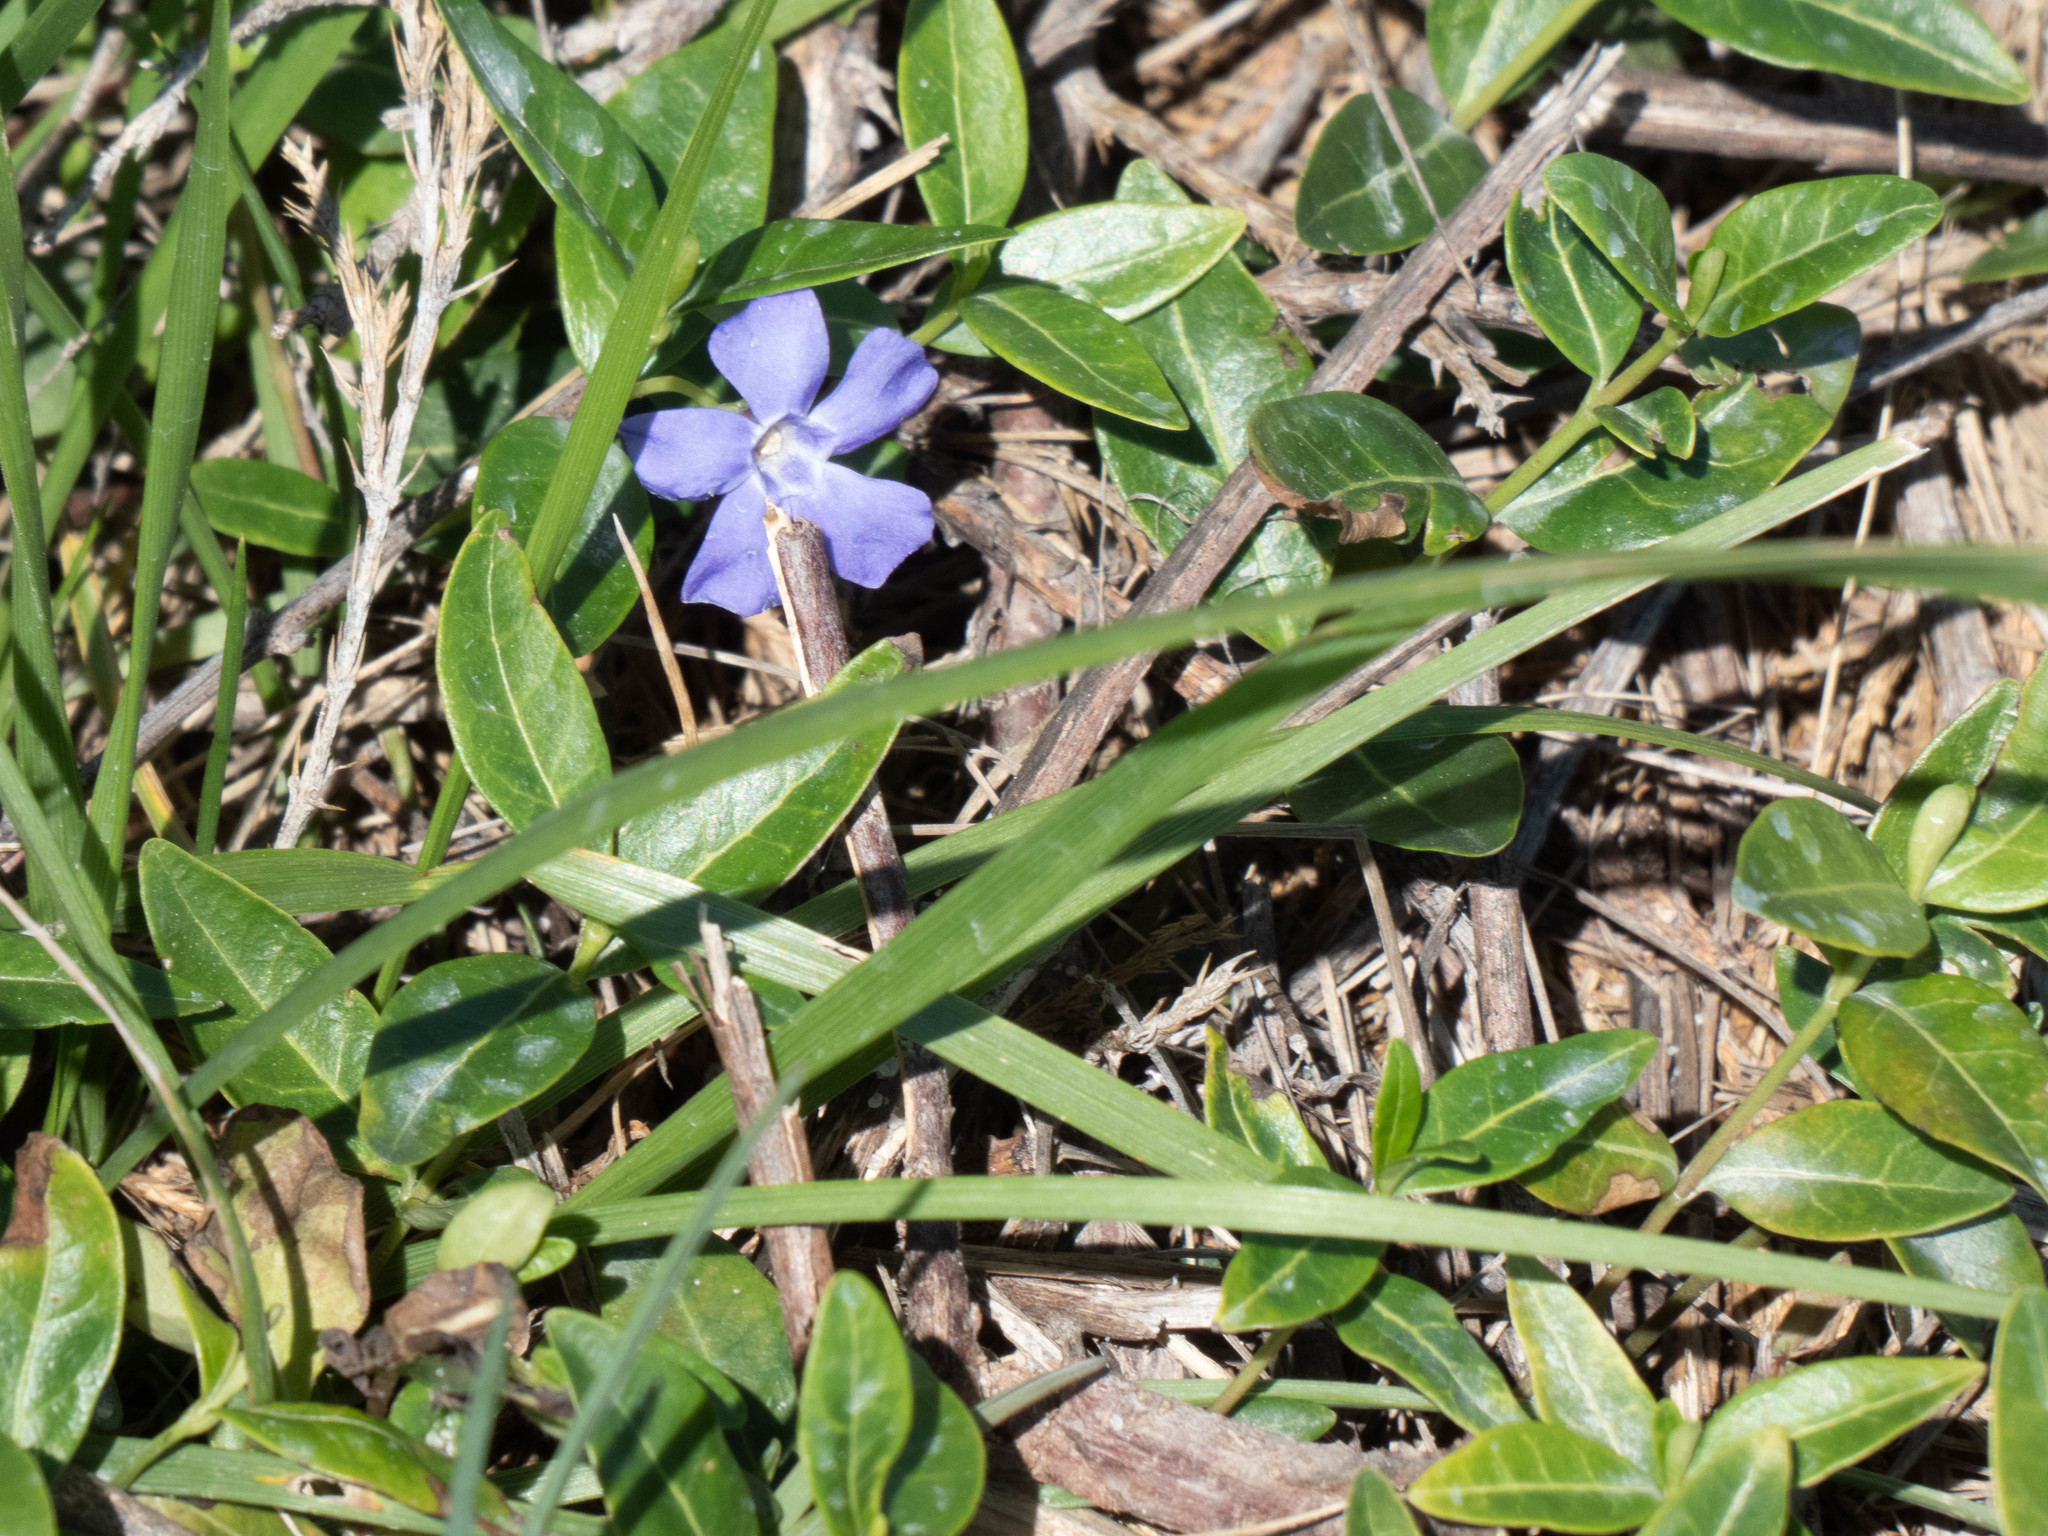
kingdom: Plantae
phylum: Tracheophyta
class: Magnoliopsida
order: Gentianales
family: Apocynaceae
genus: Vinca
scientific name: Vinca minor
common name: Lesser periwinkle
